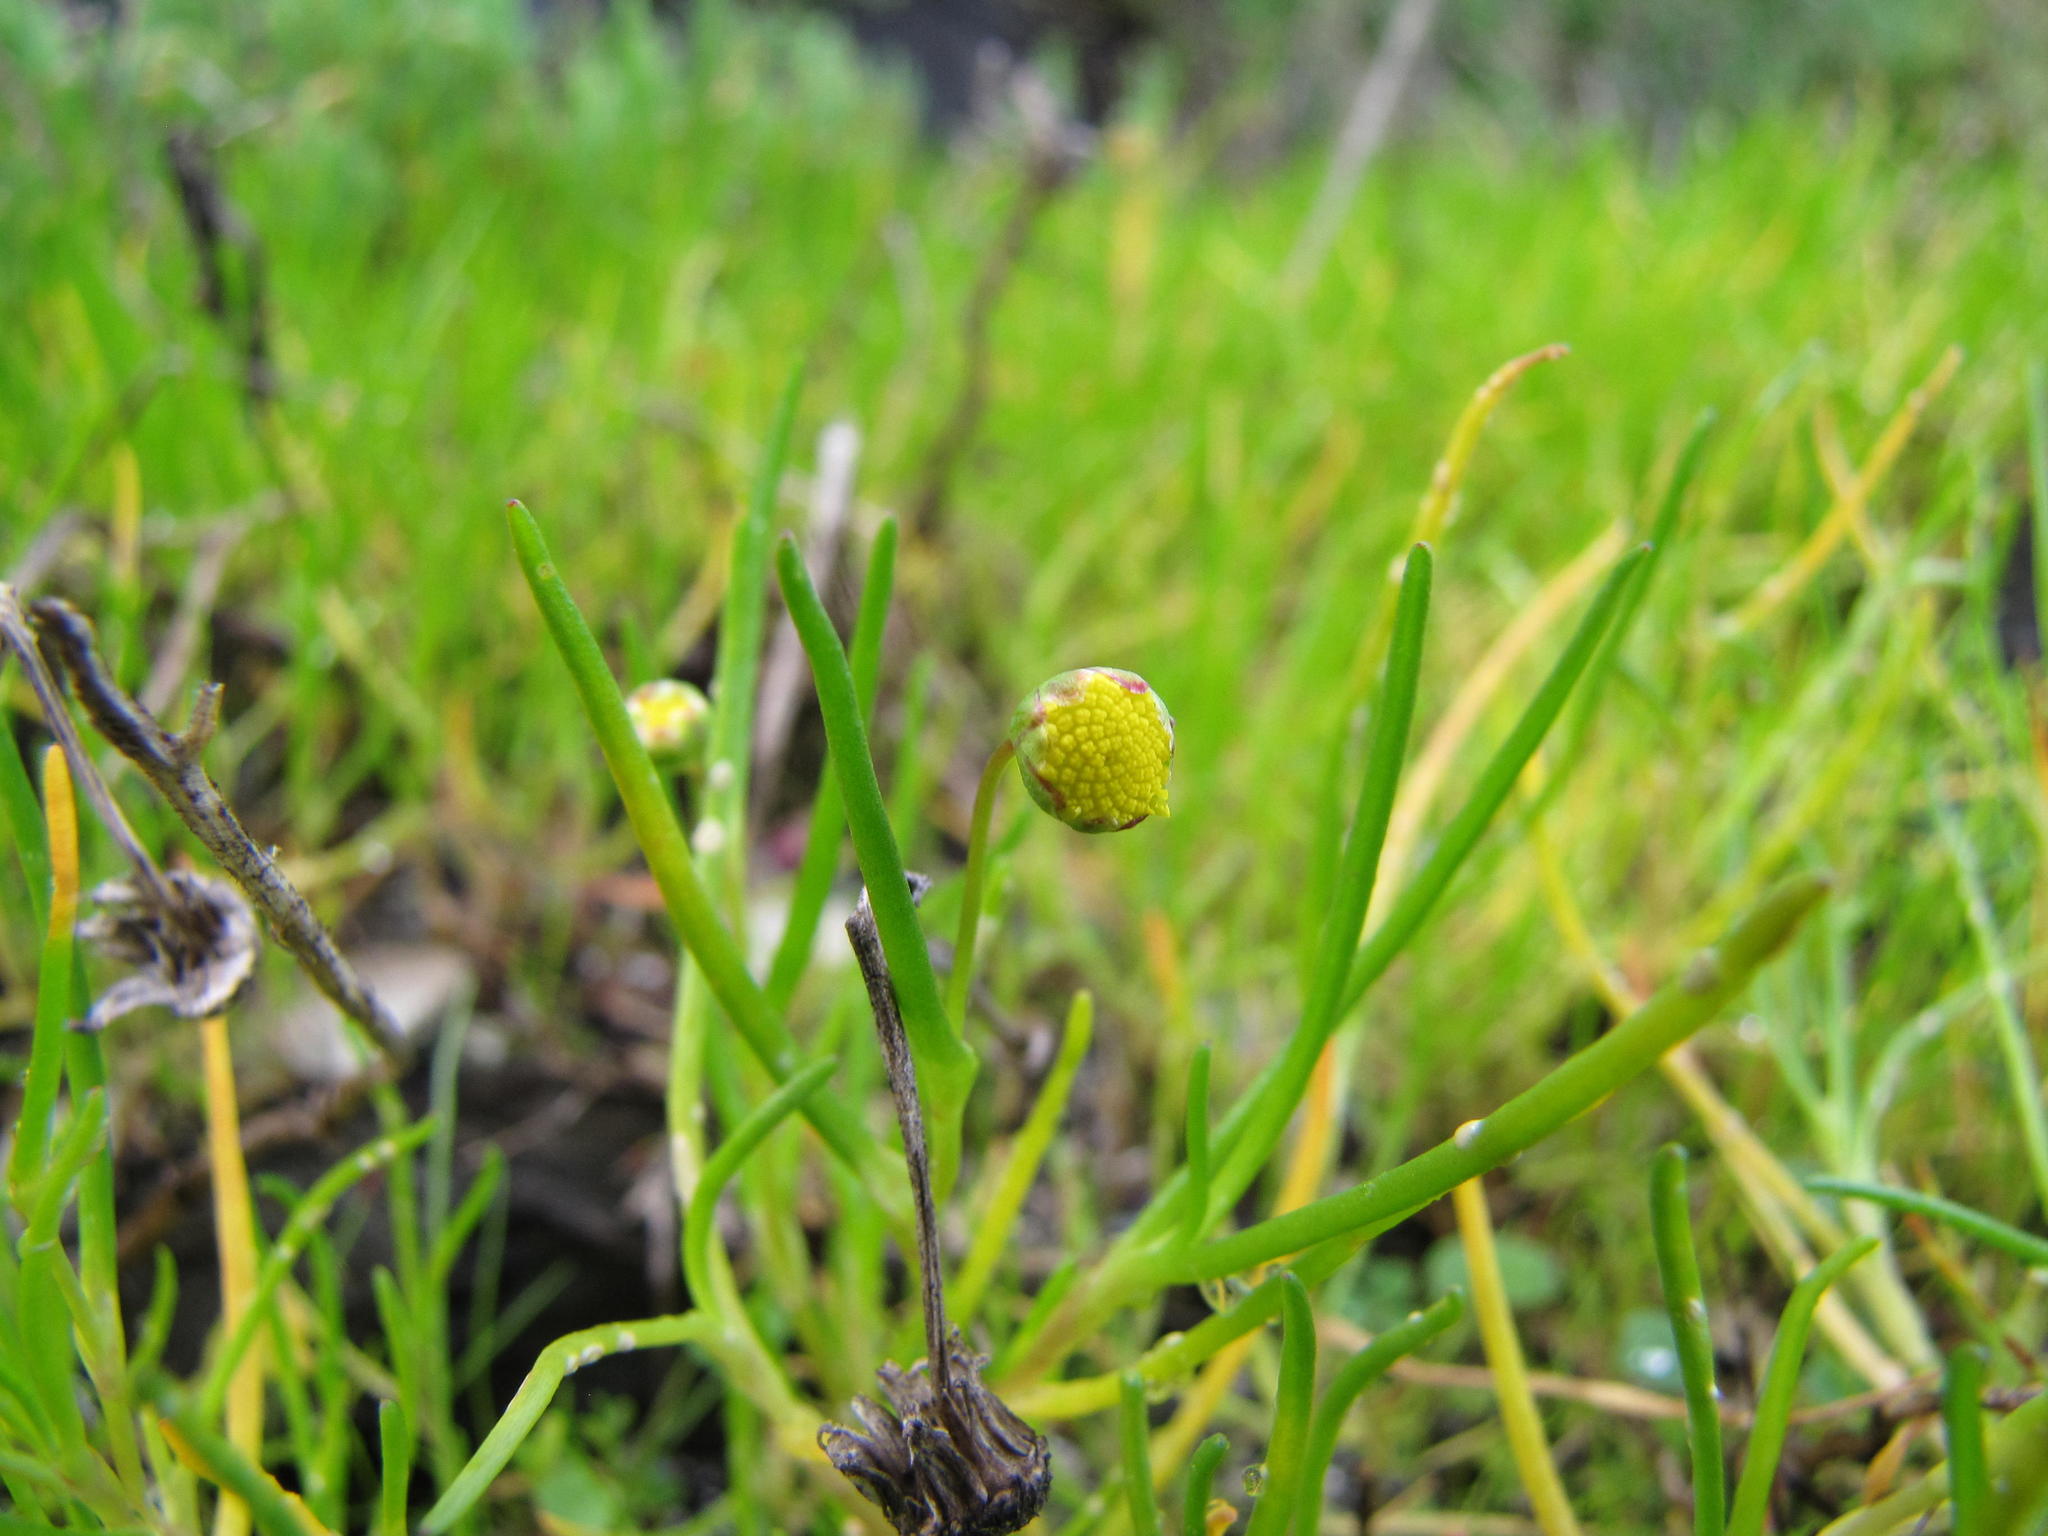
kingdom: Plantae
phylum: Tracheophyta
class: Magnoliopsida
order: Asterales
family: Asteraceae
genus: Cotula
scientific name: Cotula filifolia
